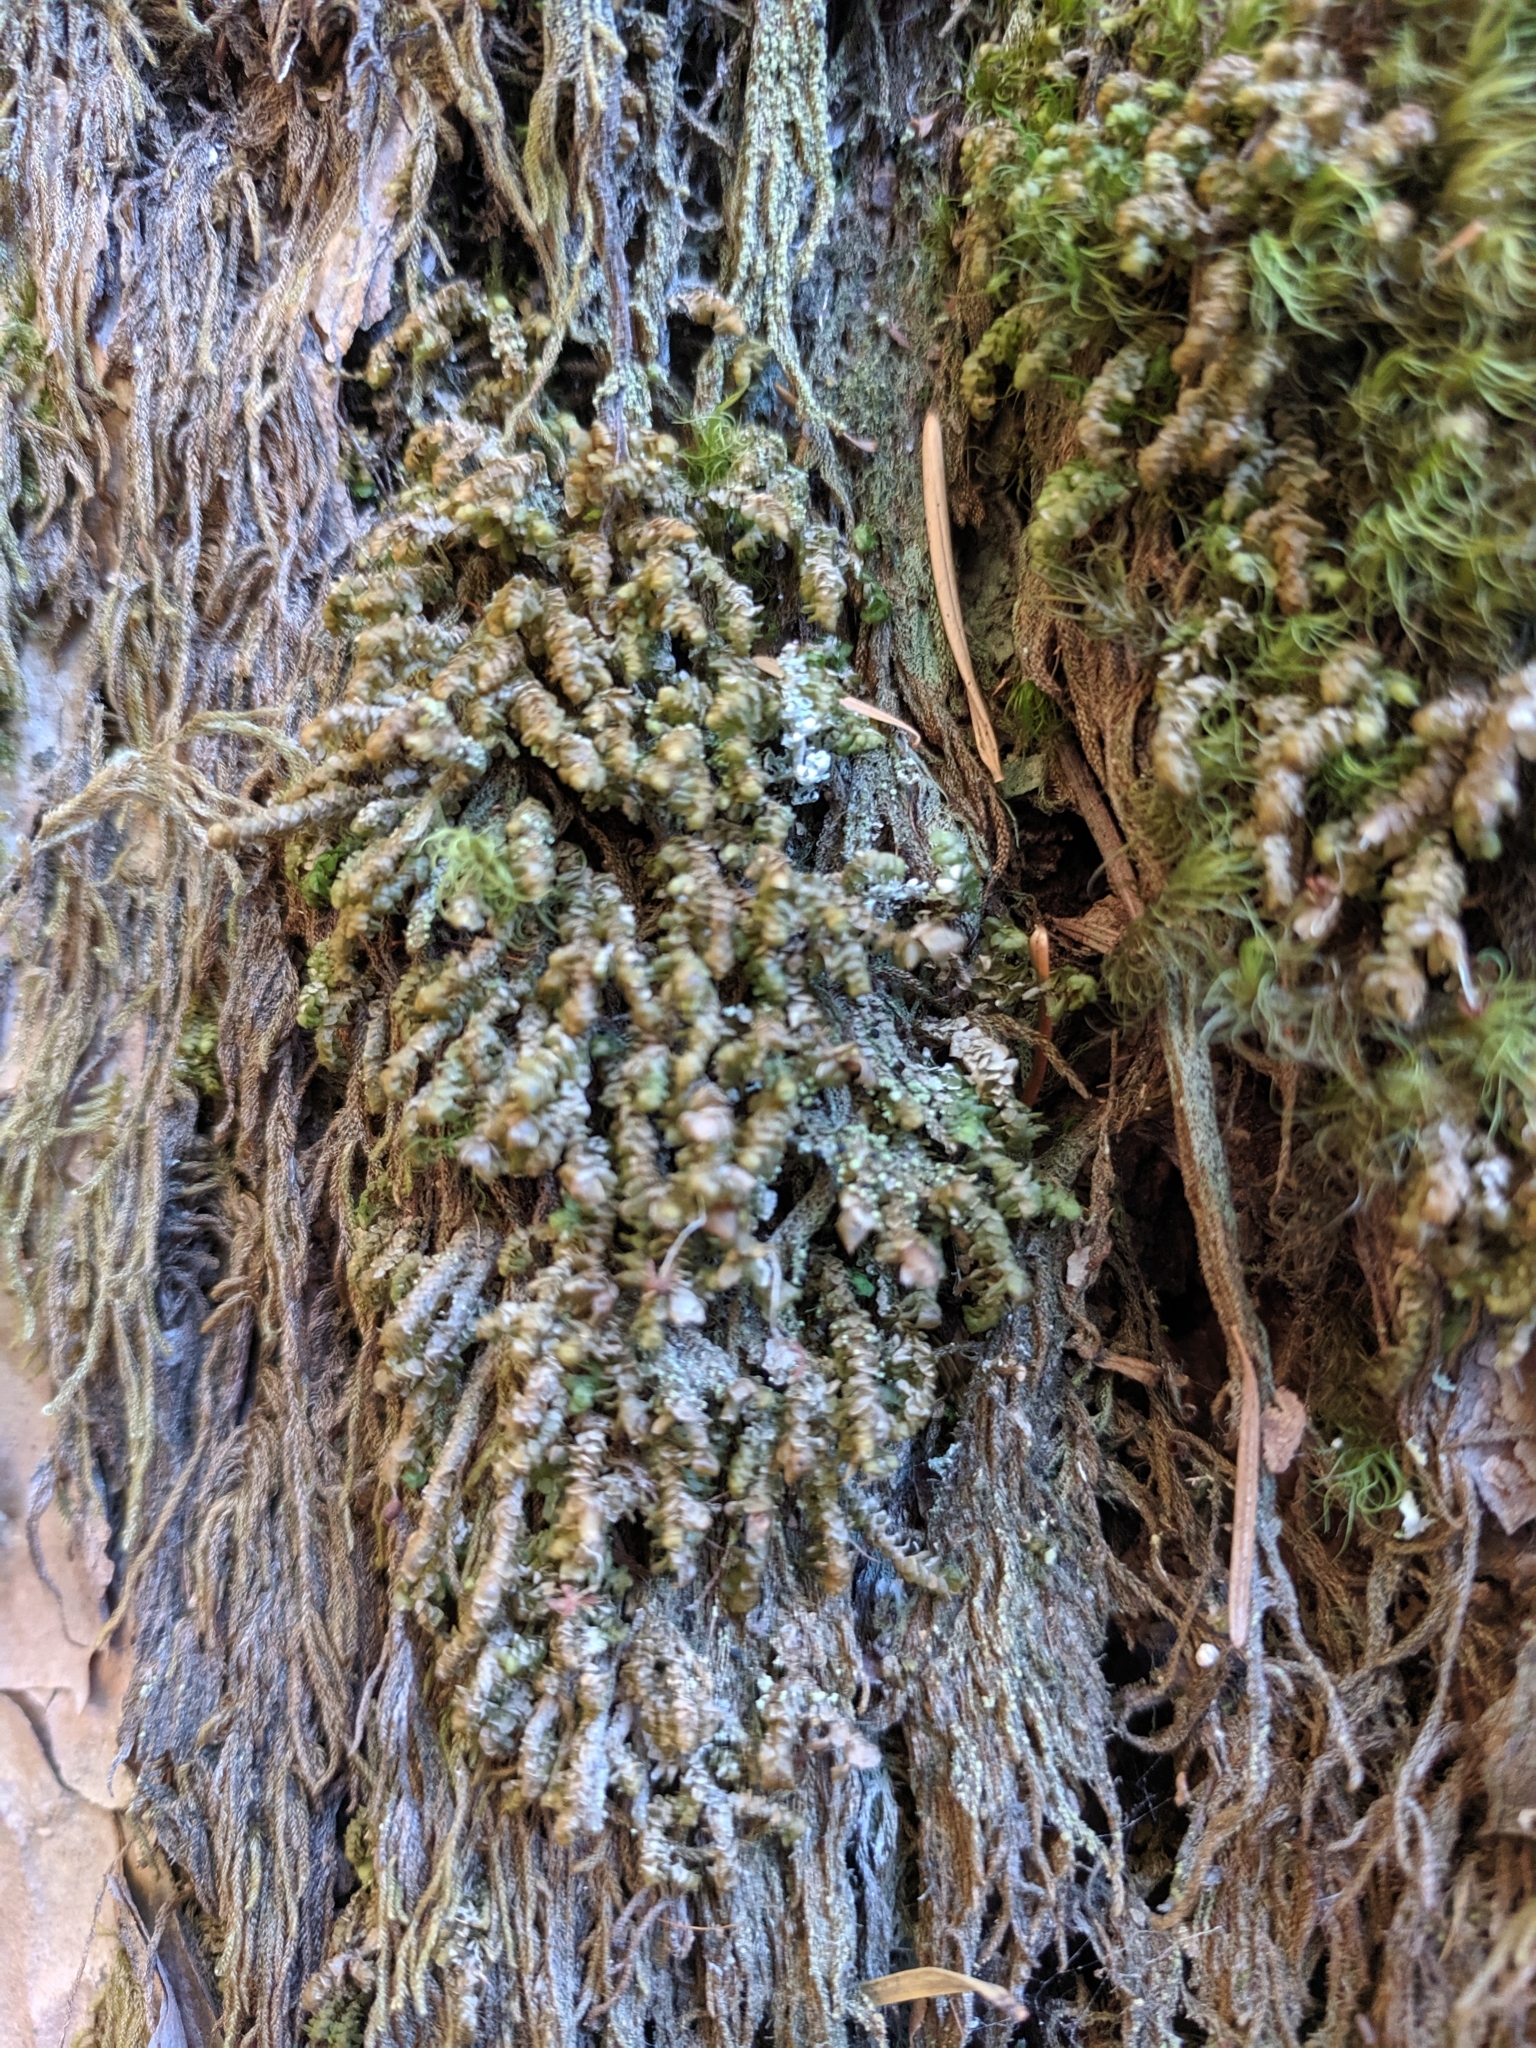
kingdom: Plantae
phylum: Marchantiophyta
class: Jungermanniopsida
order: Jungermanniales
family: Scapaniaceae
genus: Scapania
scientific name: Scapania bolanderi
